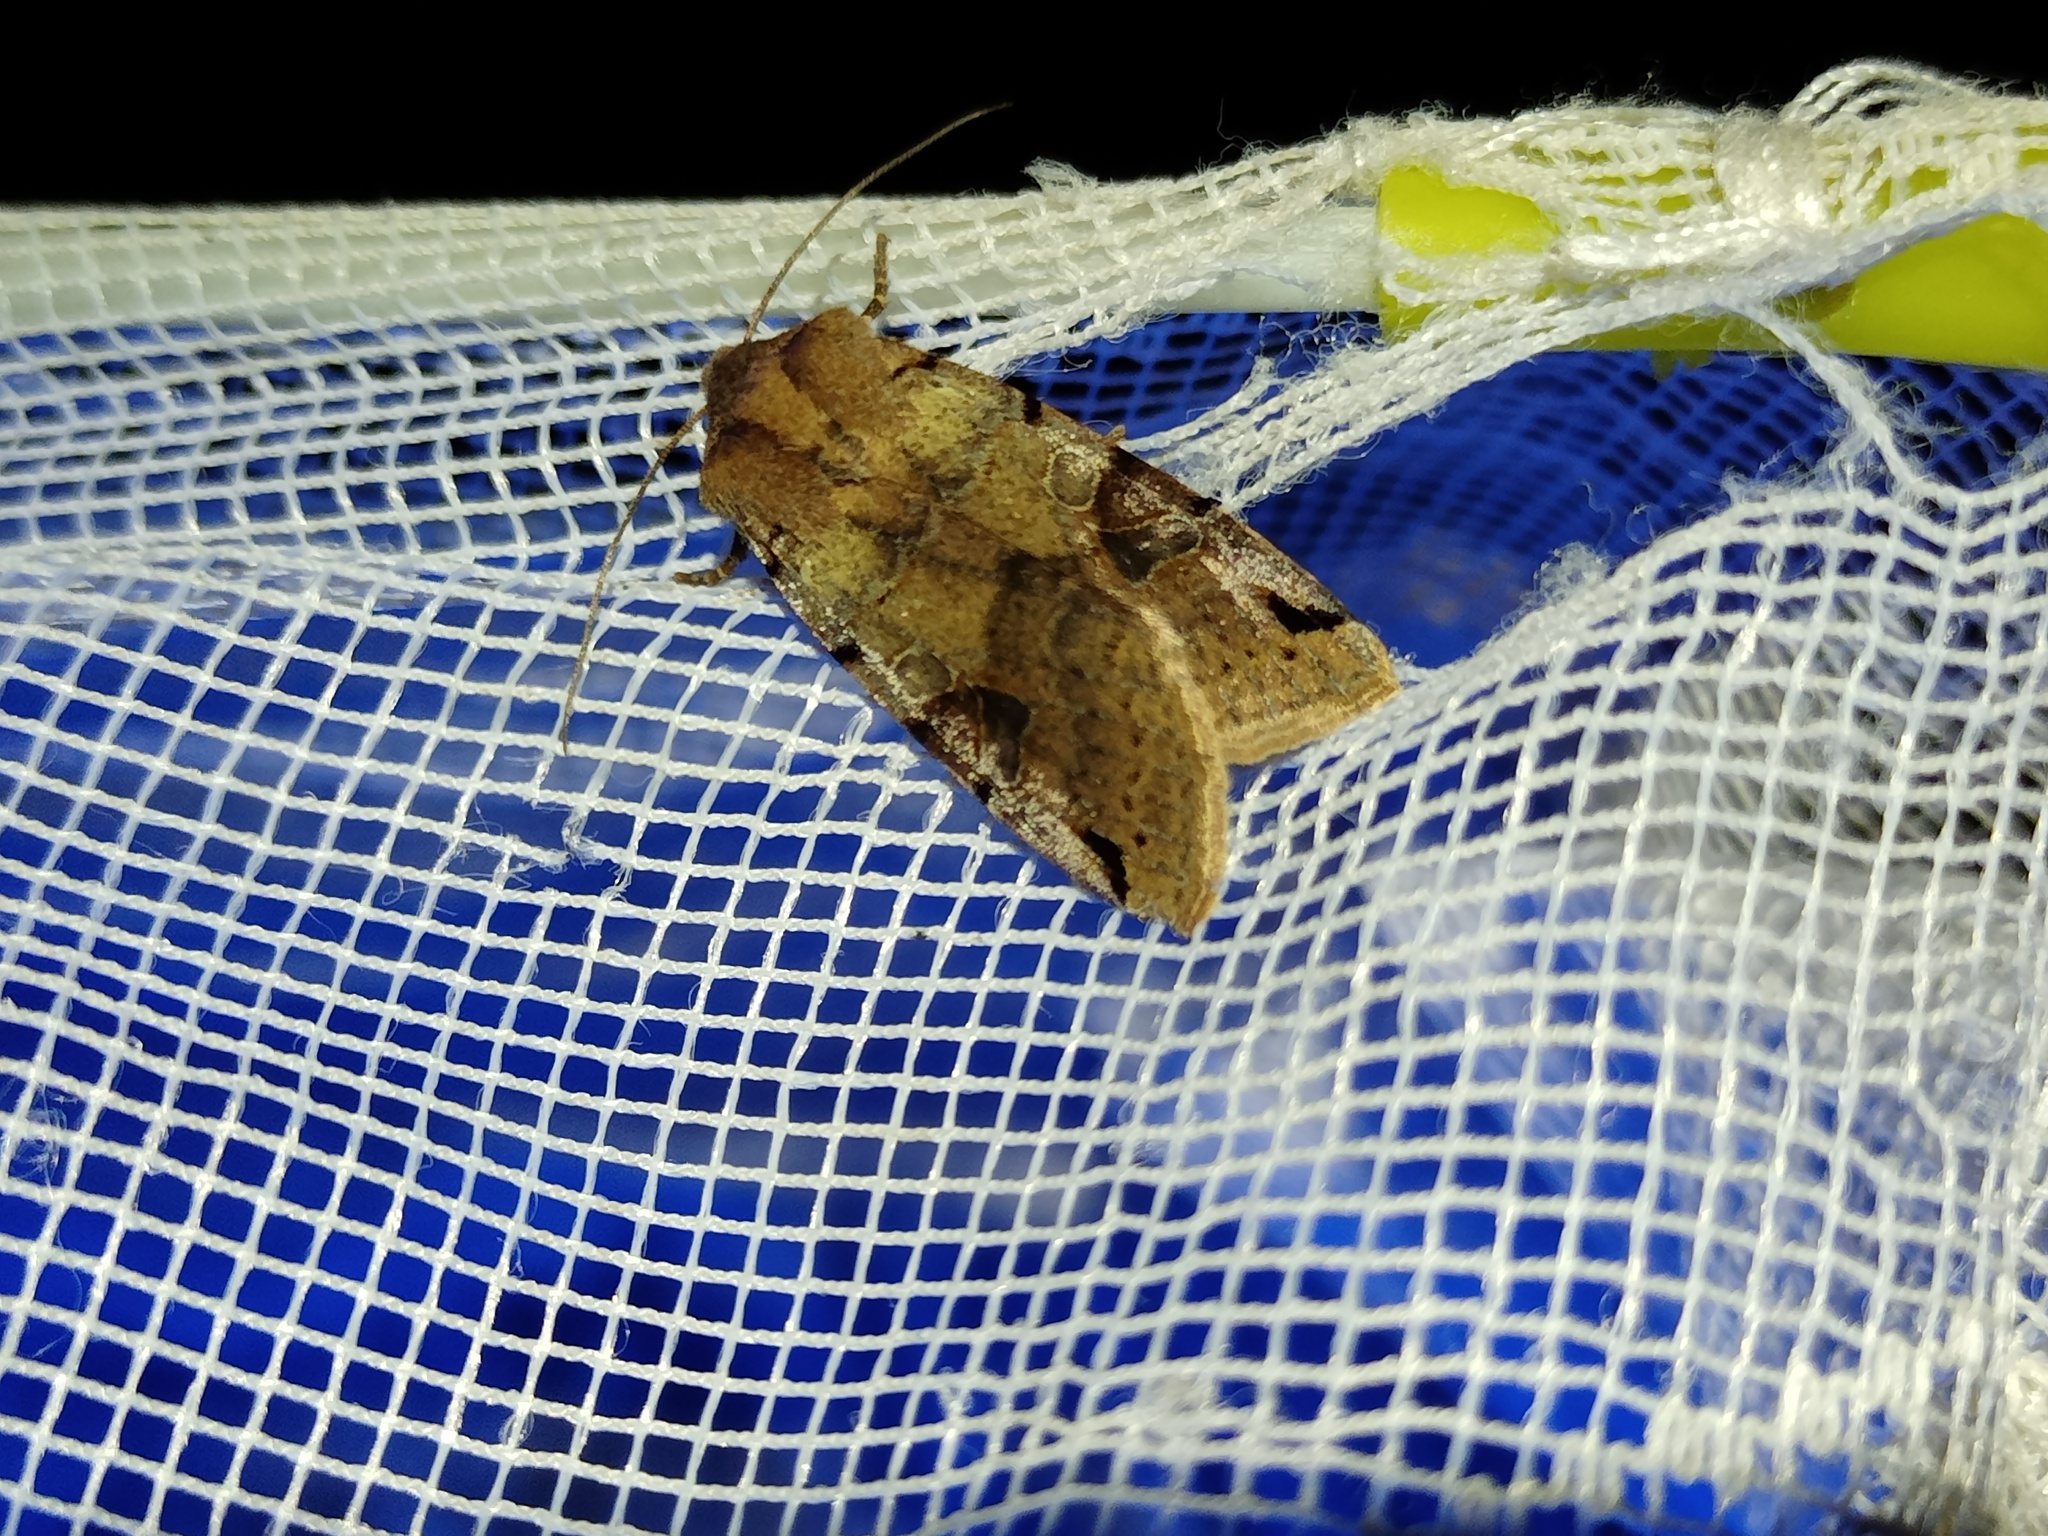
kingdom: Animalia
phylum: Arthropoda
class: Insecta
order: Lepidoptera
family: Noctuidae
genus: Agrochola
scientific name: Agrochola litura
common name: Brown-spot pinion
